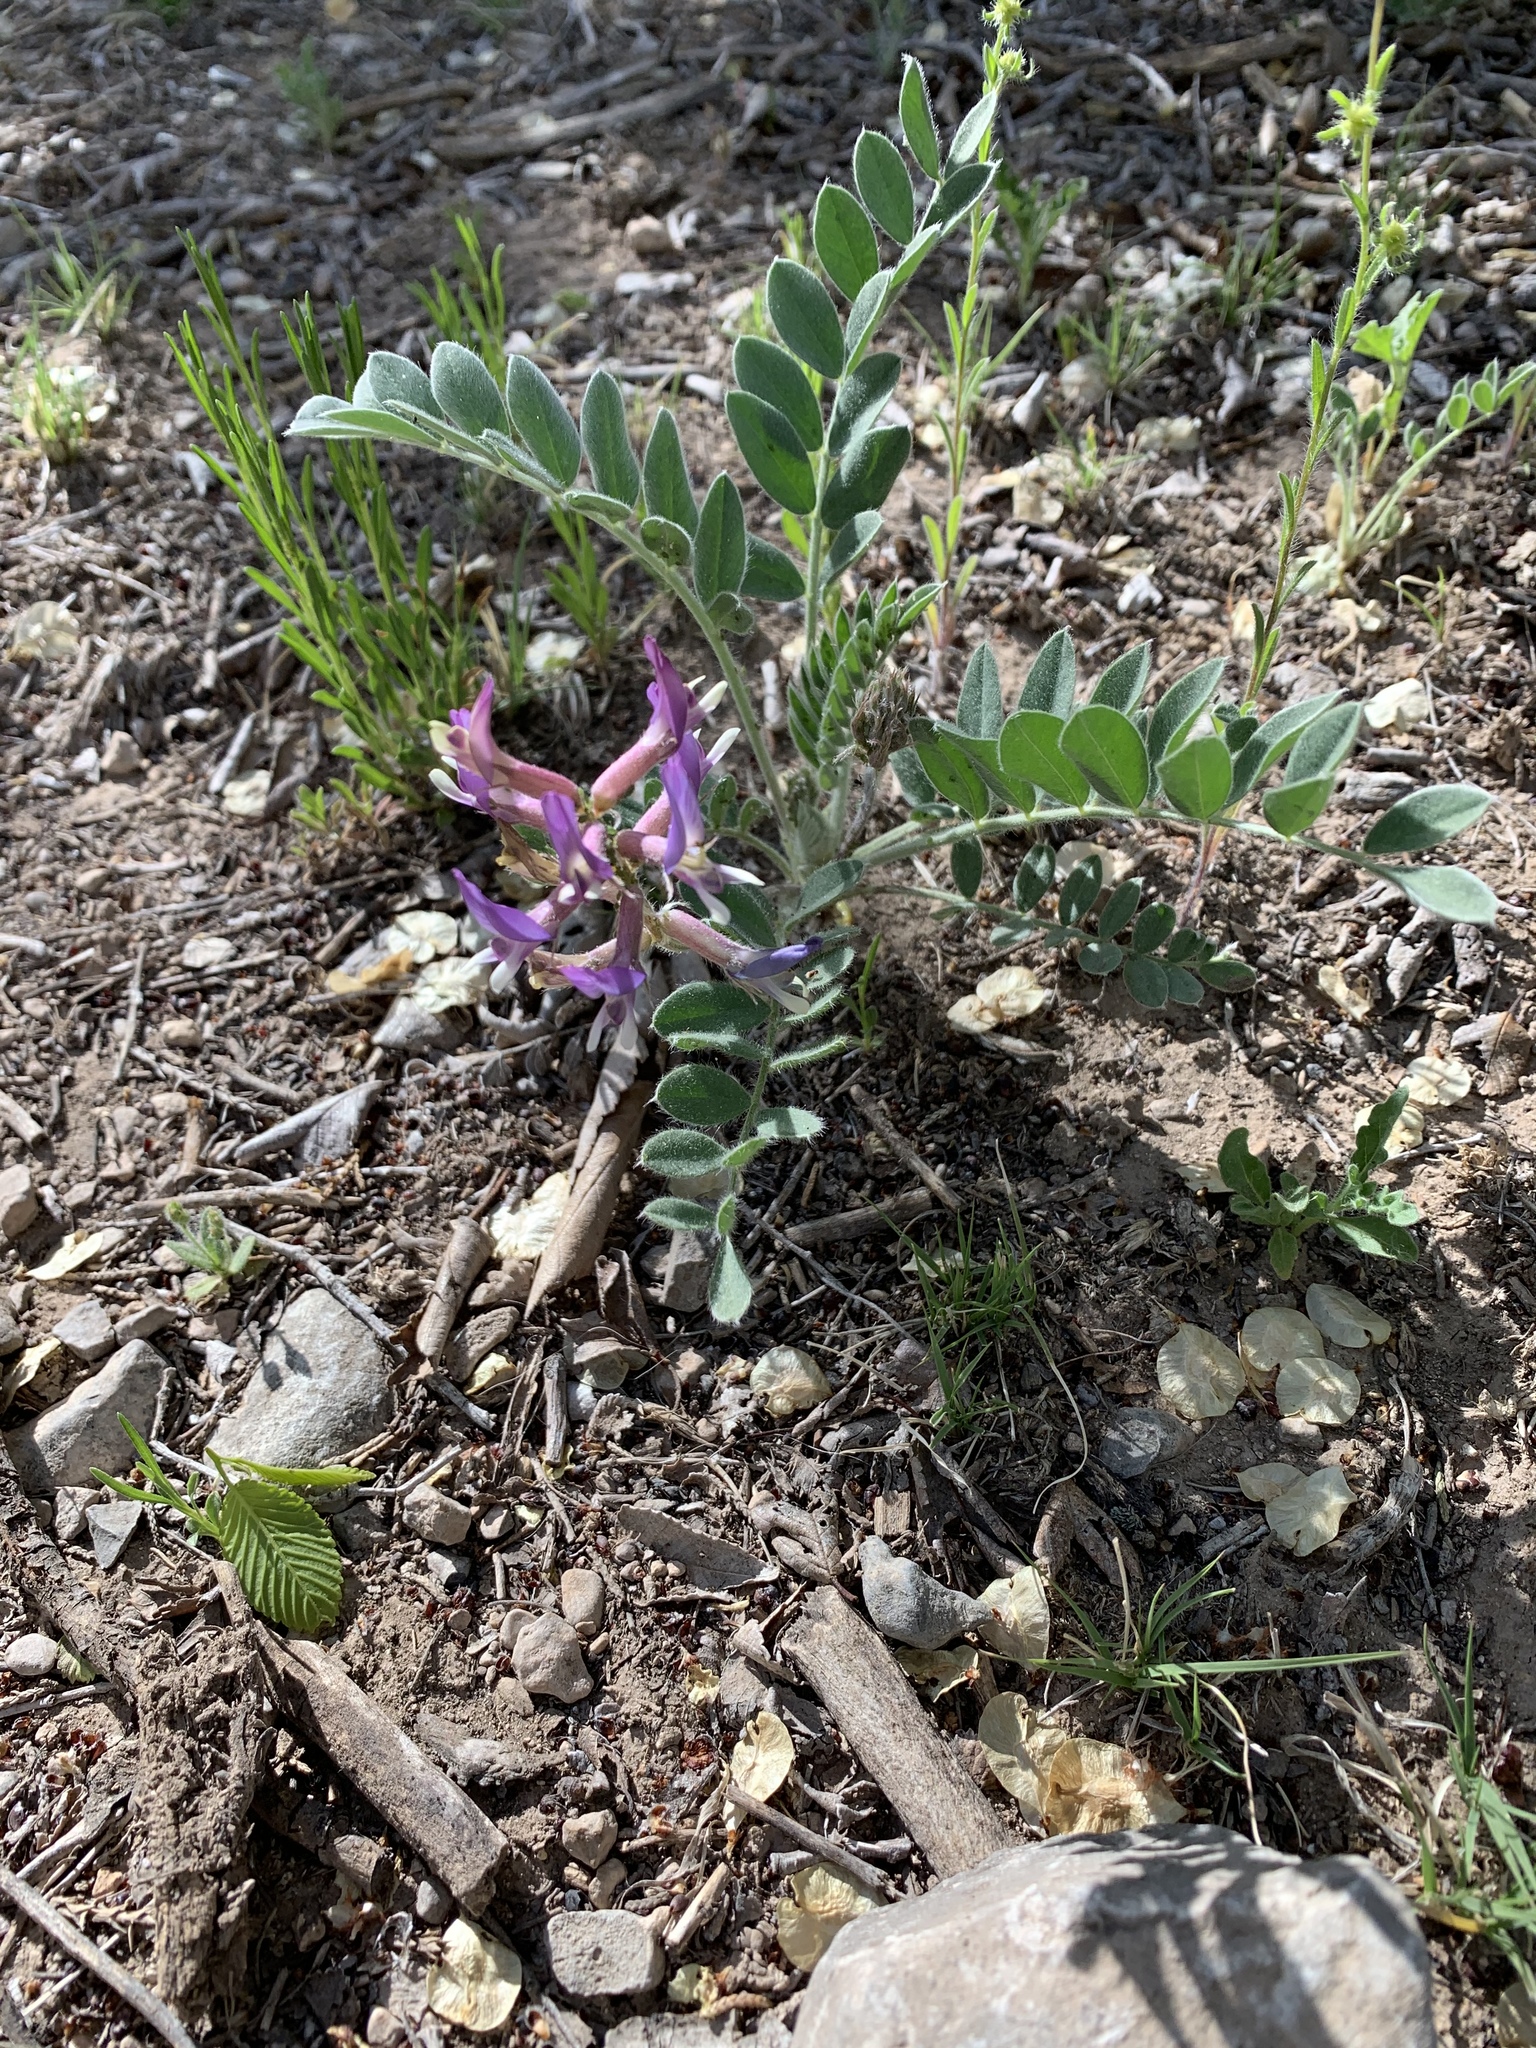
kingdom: Plantae
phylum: Tracheophyta
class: Magnoliopsida
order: Fabales
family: Fabaceae
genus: Astragalus
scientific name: Astragalus mollissimus
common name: Woolly locoweed
